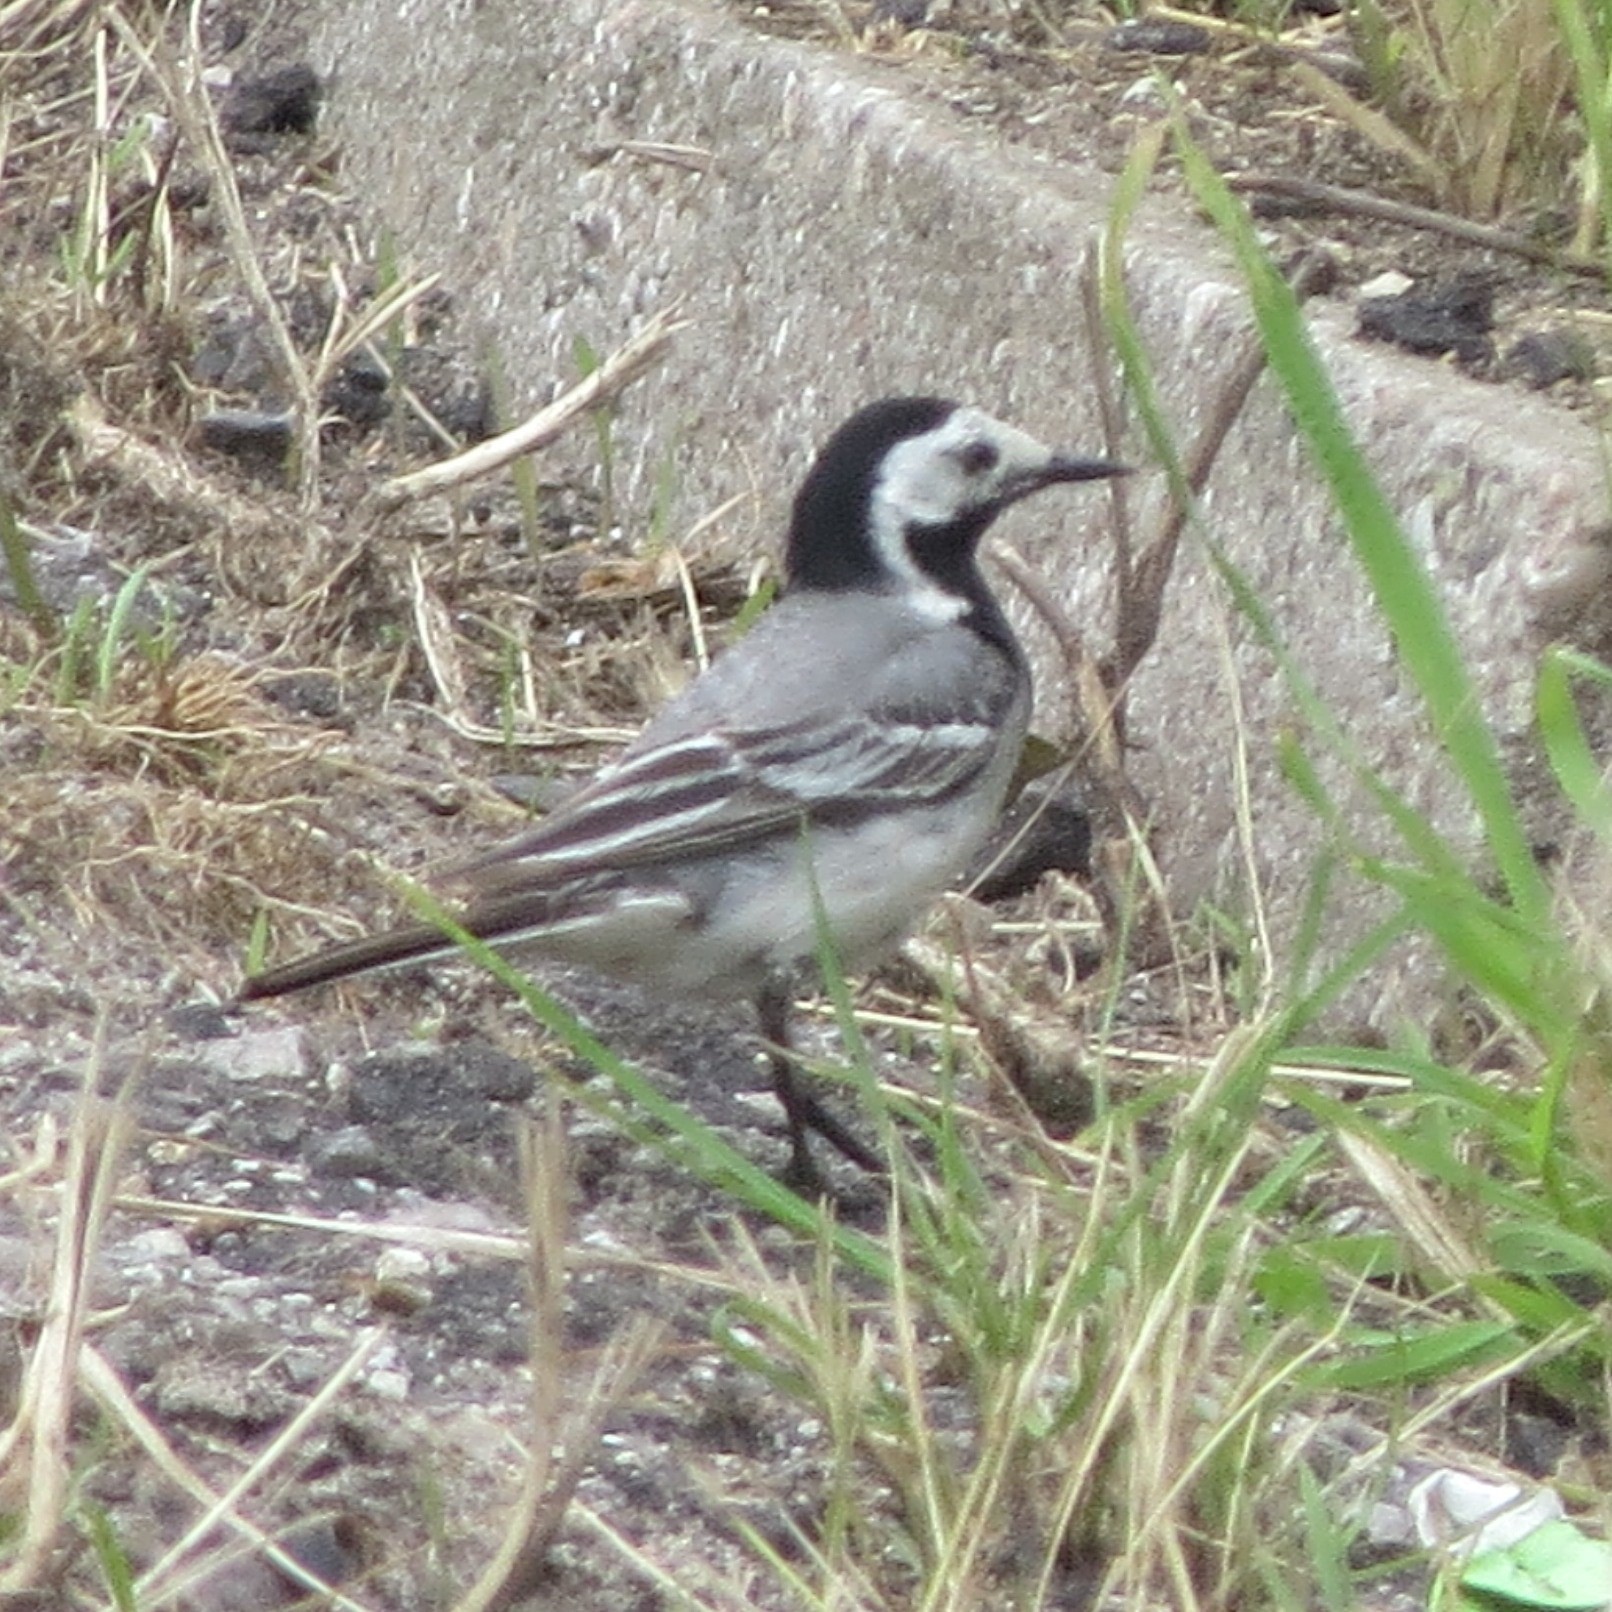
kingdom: Animalia
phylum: Chordata
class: Aves
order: Passeriformes
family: Motacillidae
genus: Motacilla
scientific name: Motacilla alba
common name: White wagtail
